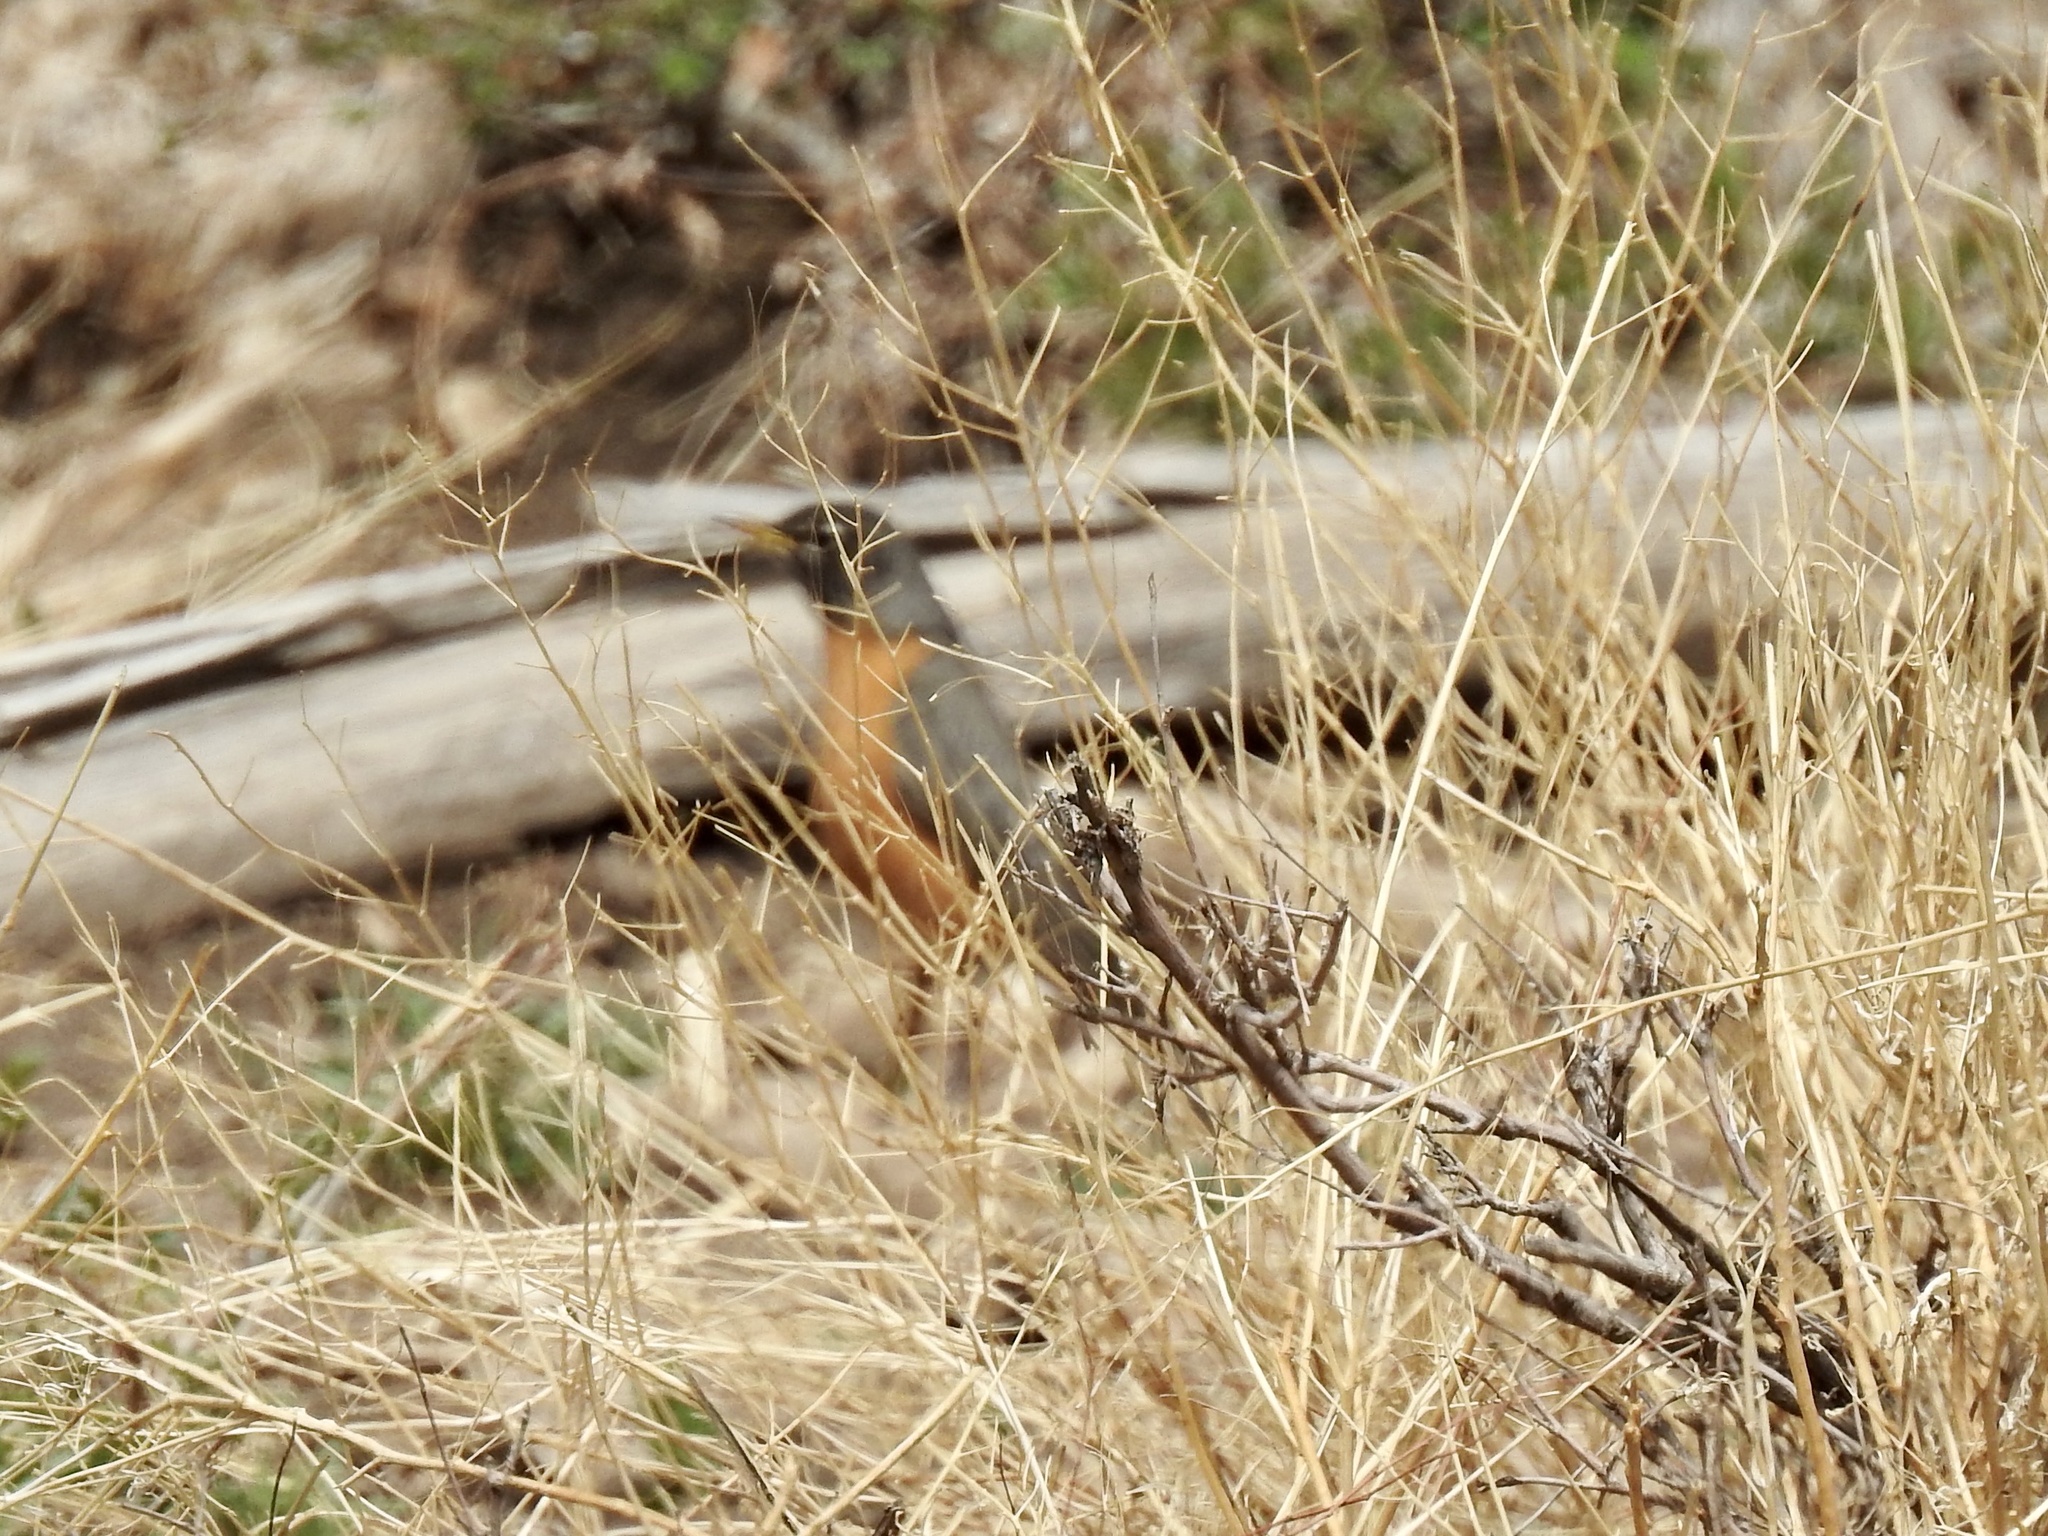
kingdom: Animalia
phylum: Chordata
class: Aves
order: Passeriformes
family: Turdidae
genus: Turdus
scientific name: Turdus migratorius
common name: American robin
